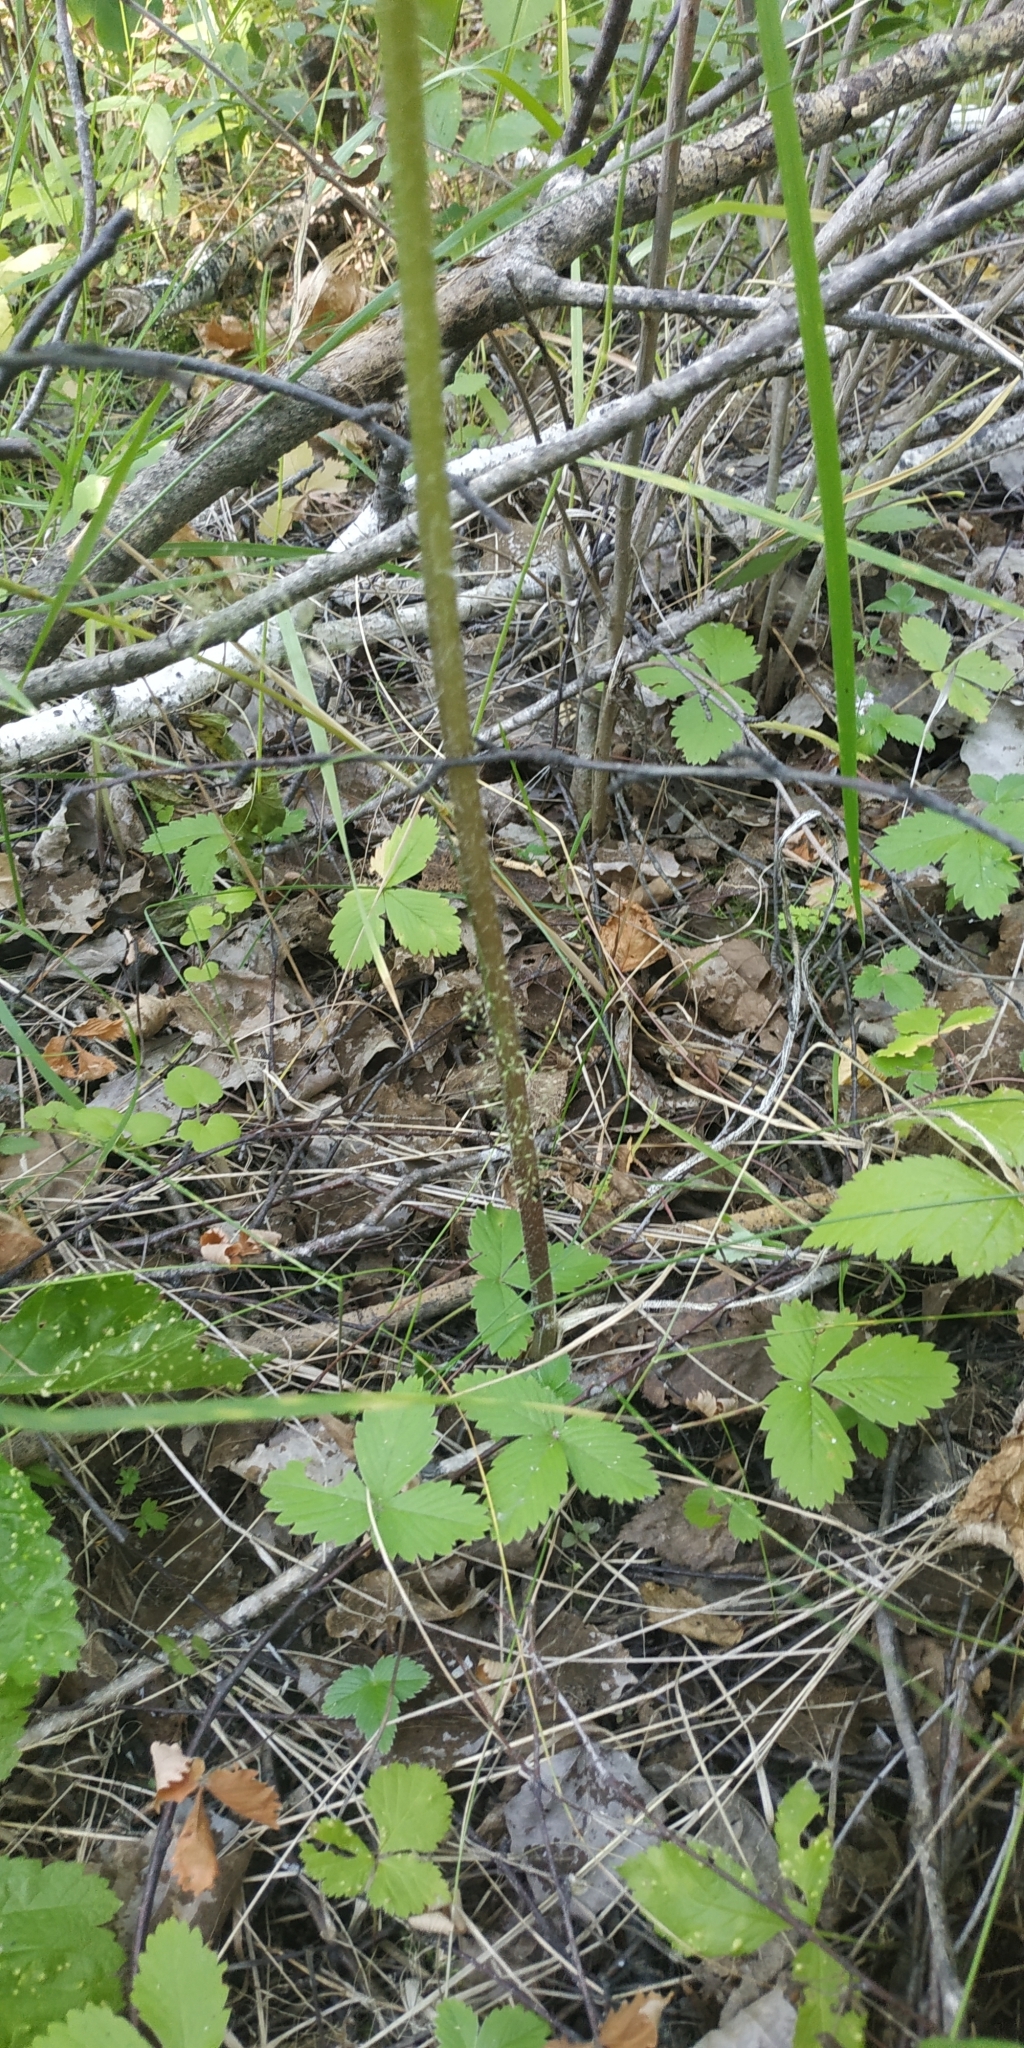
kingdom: Plantae
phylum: Tracheophyta
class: Magnoliopsida
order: Apiales
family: Apiaceae
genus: Heracleum
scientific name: Heracleum sphondylium
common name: Hogweed
